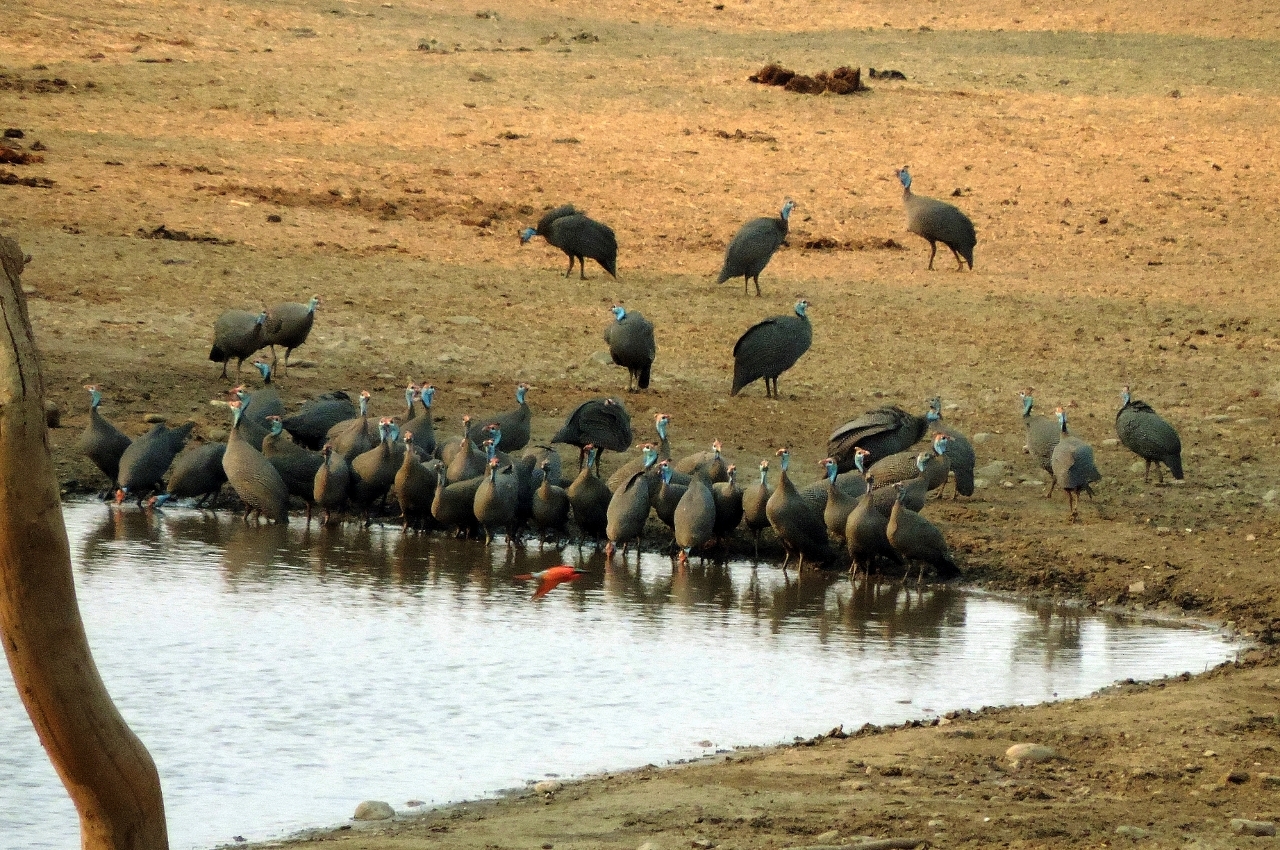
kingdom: Animalia
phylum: Chordata
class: Aves
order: Galliformes
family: Numididae
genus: Numida
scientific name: Numida meleagris
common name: Helmeted guineafowl
